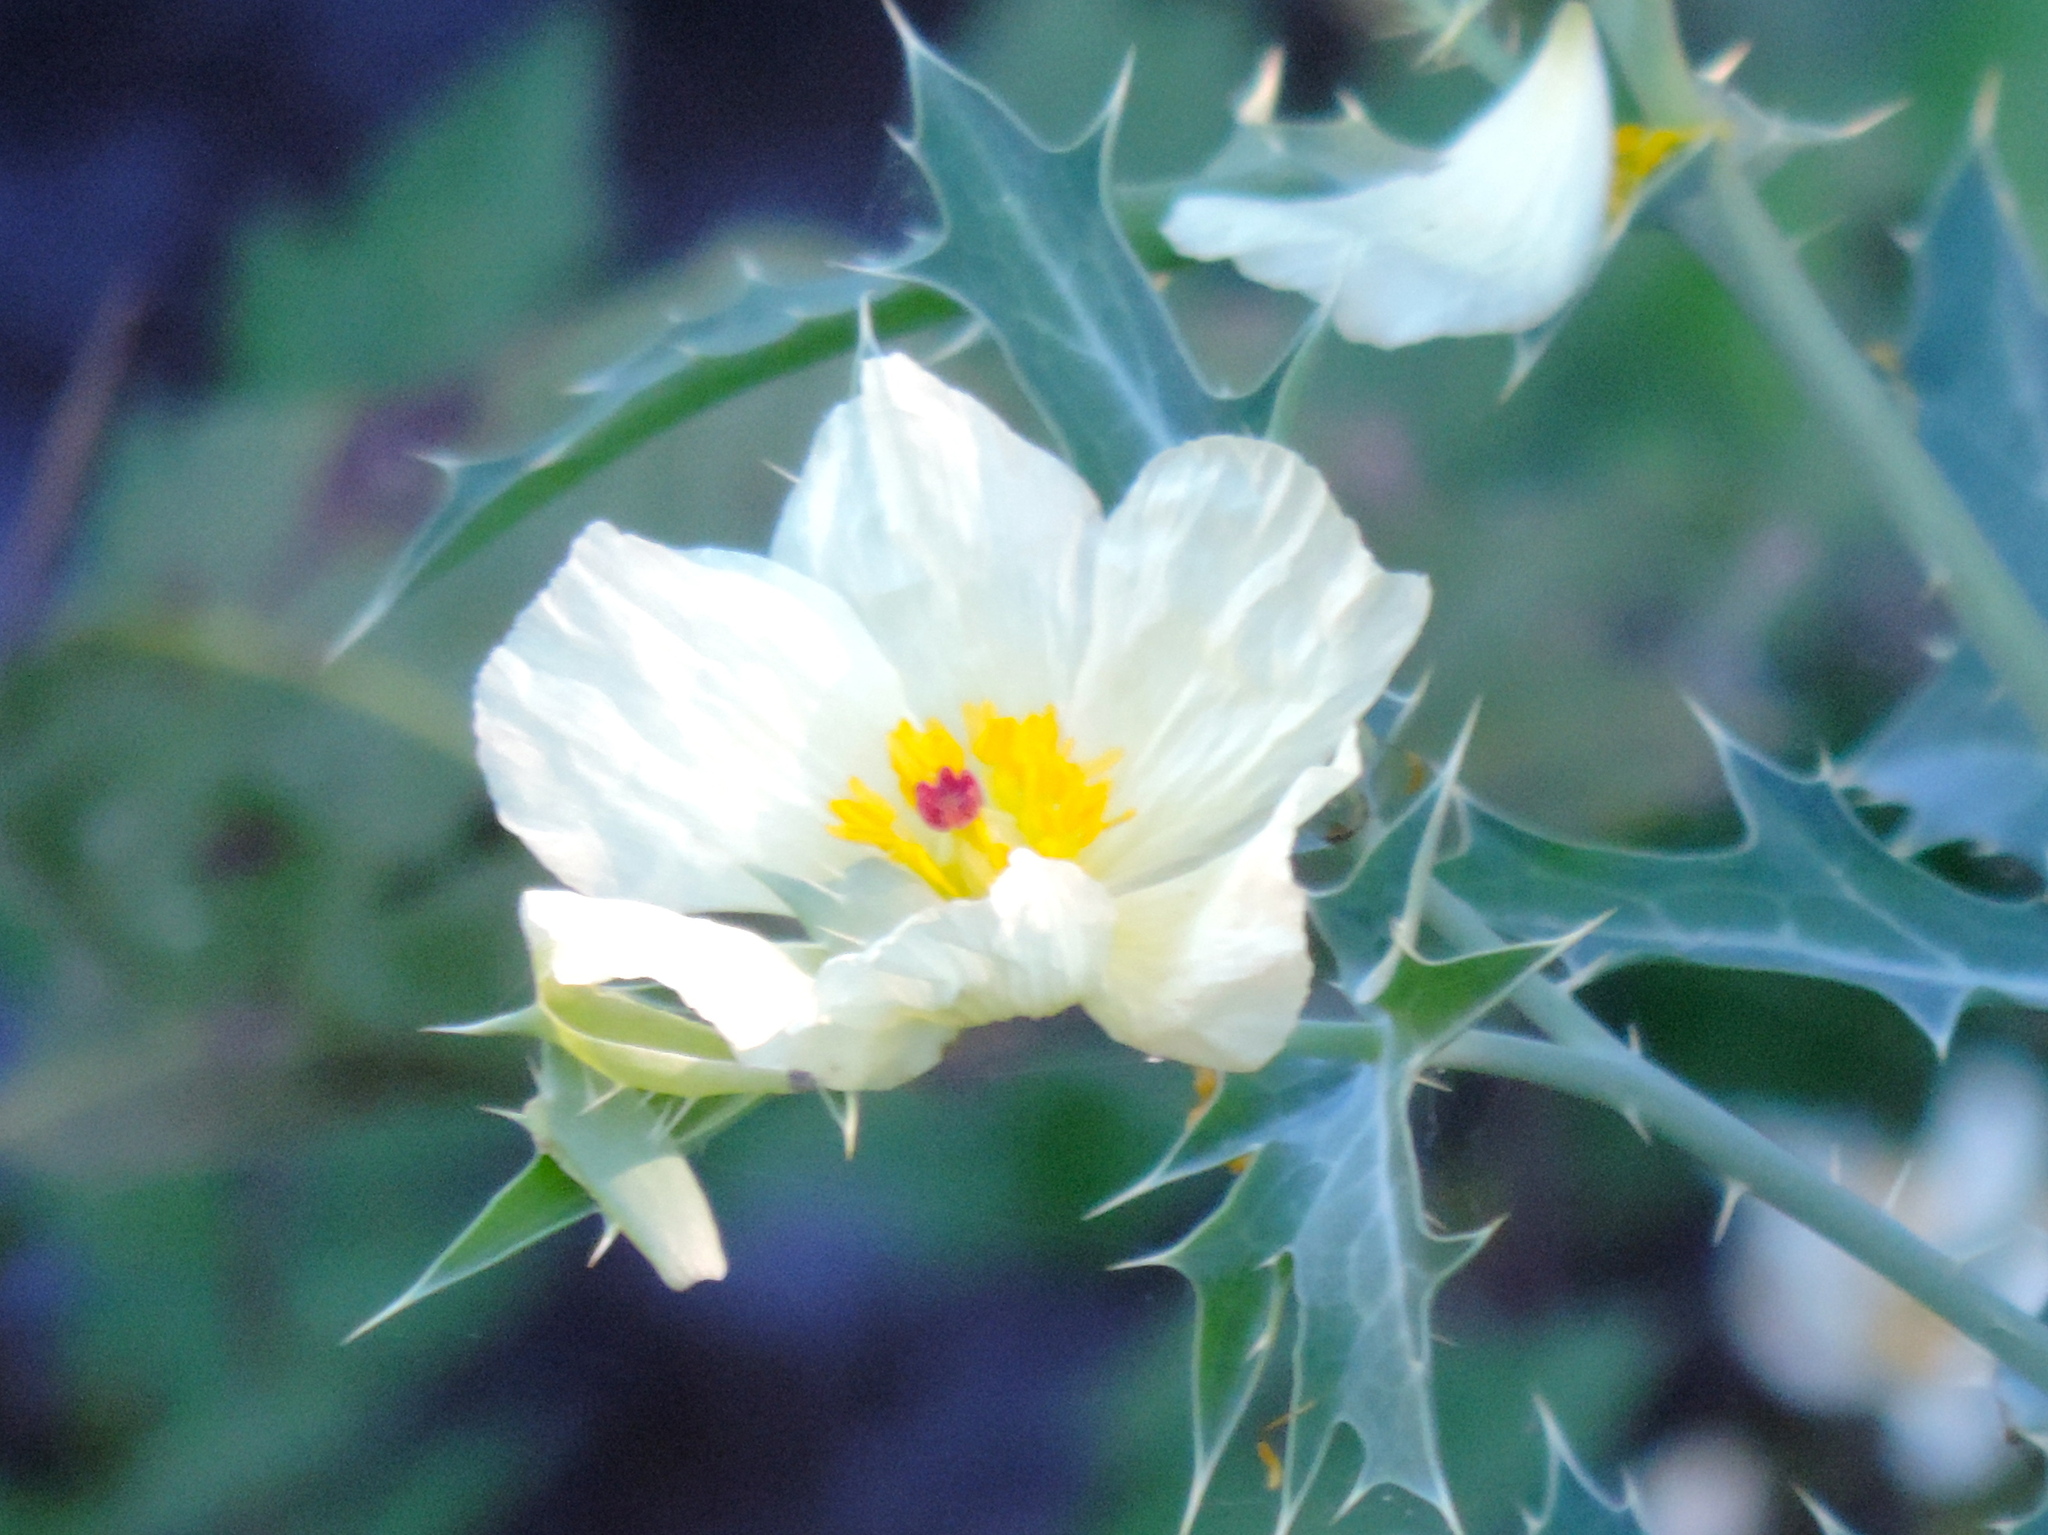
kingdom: Plantae
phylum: Tracheophyta
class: Magnoliopsida
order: Ranunculales
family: Papaveraceae
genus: Argemone
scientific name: Argemone ochroleuca
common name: White-flower mexican-poppy
